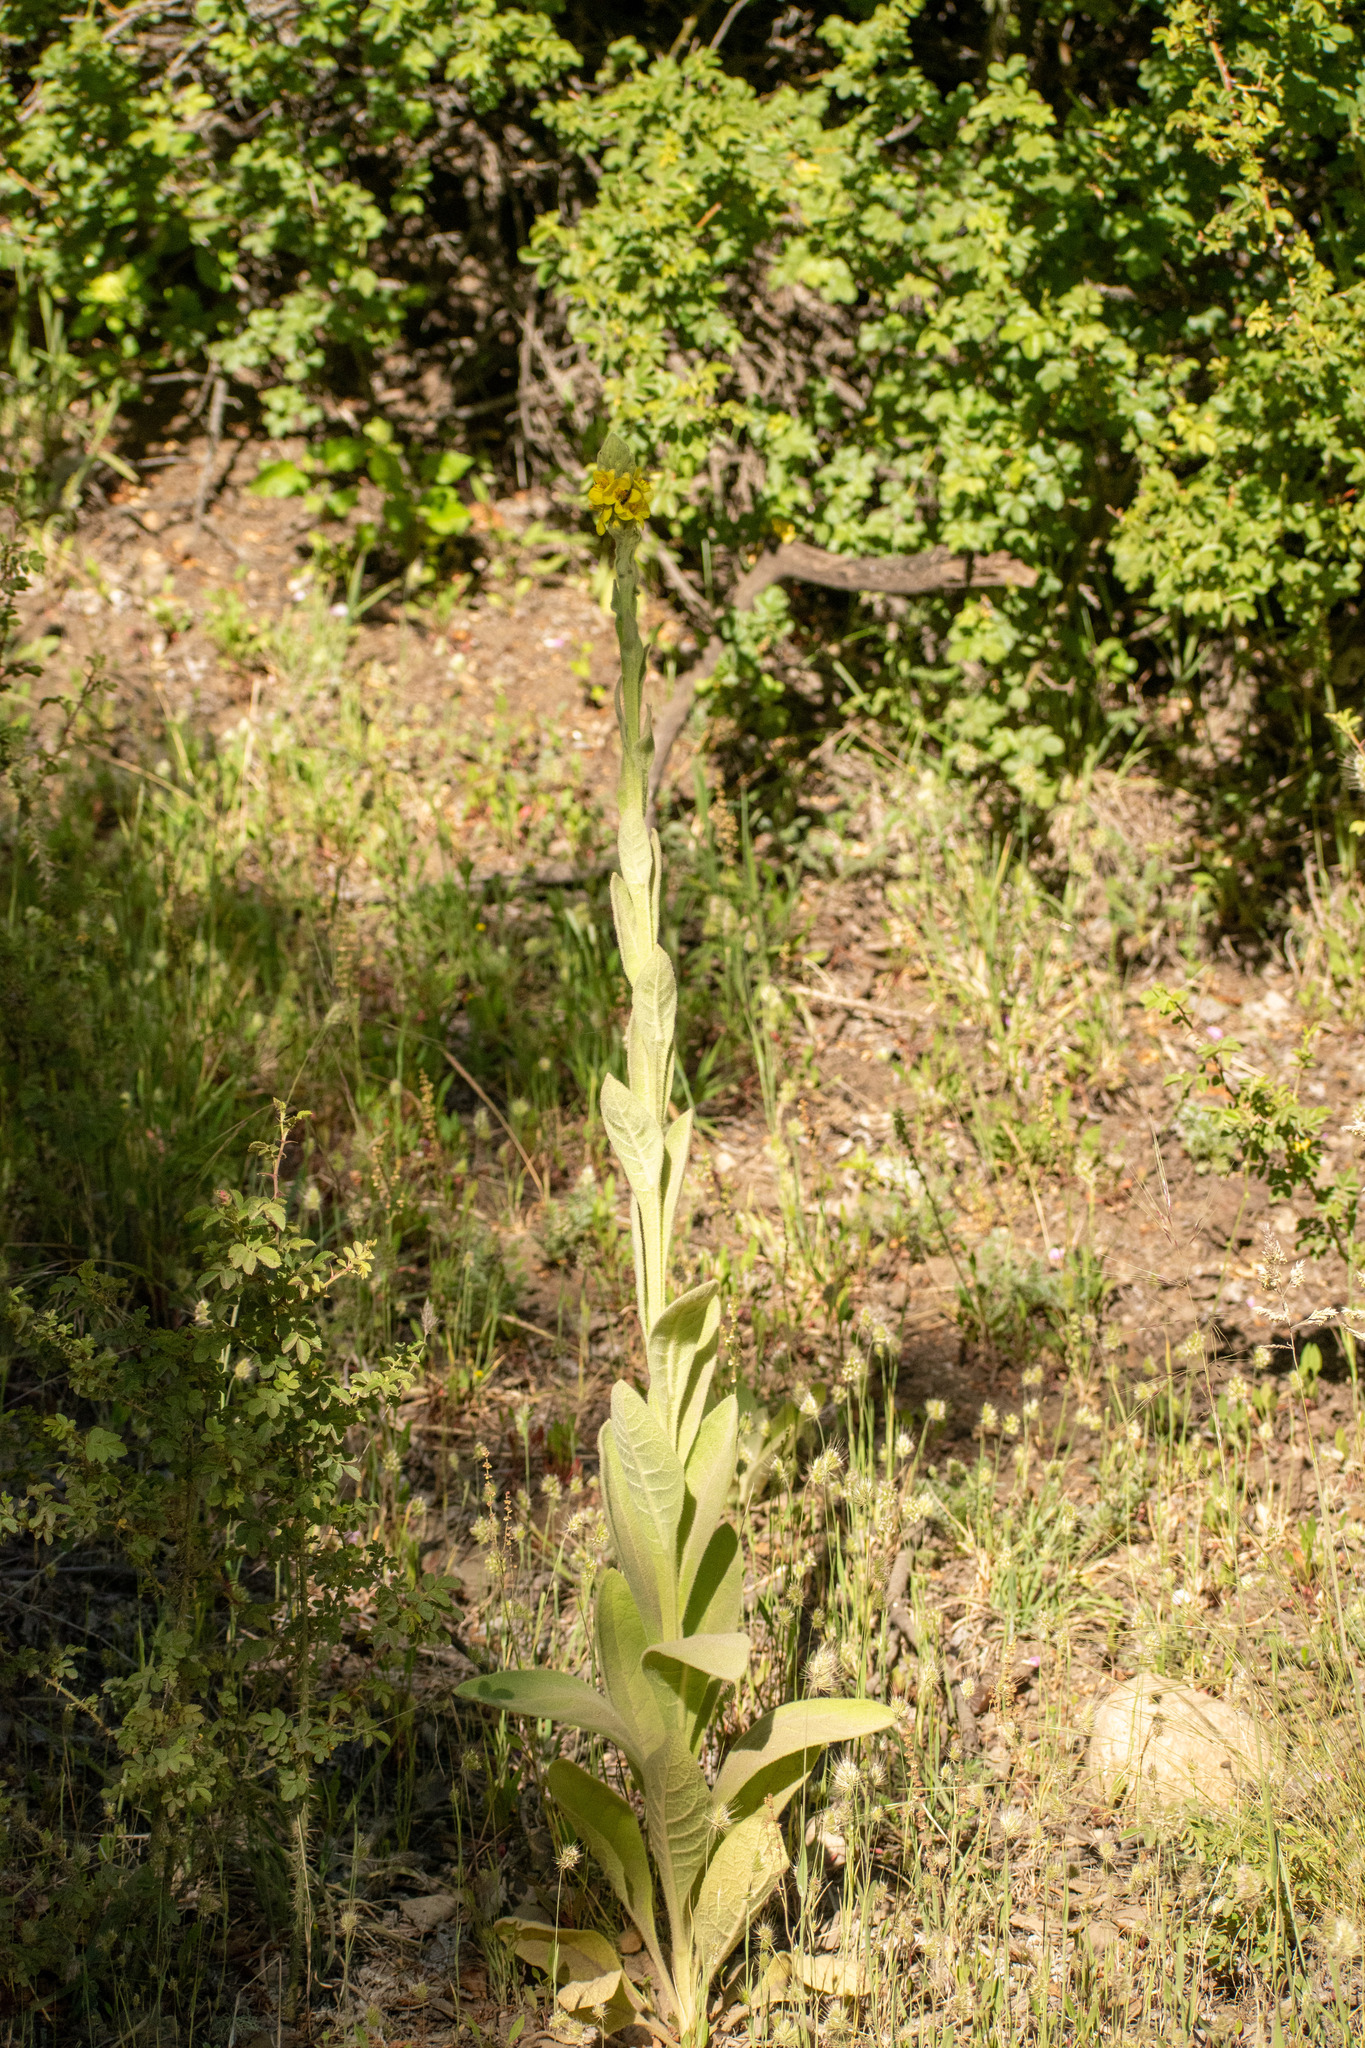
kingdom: Plantae
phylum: Tracheophyta
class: Magnoliopsida
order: Lamiales
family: Scrophulariaceae
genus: Verbascum
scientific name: Verbascum thapsus
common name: Common mullein
